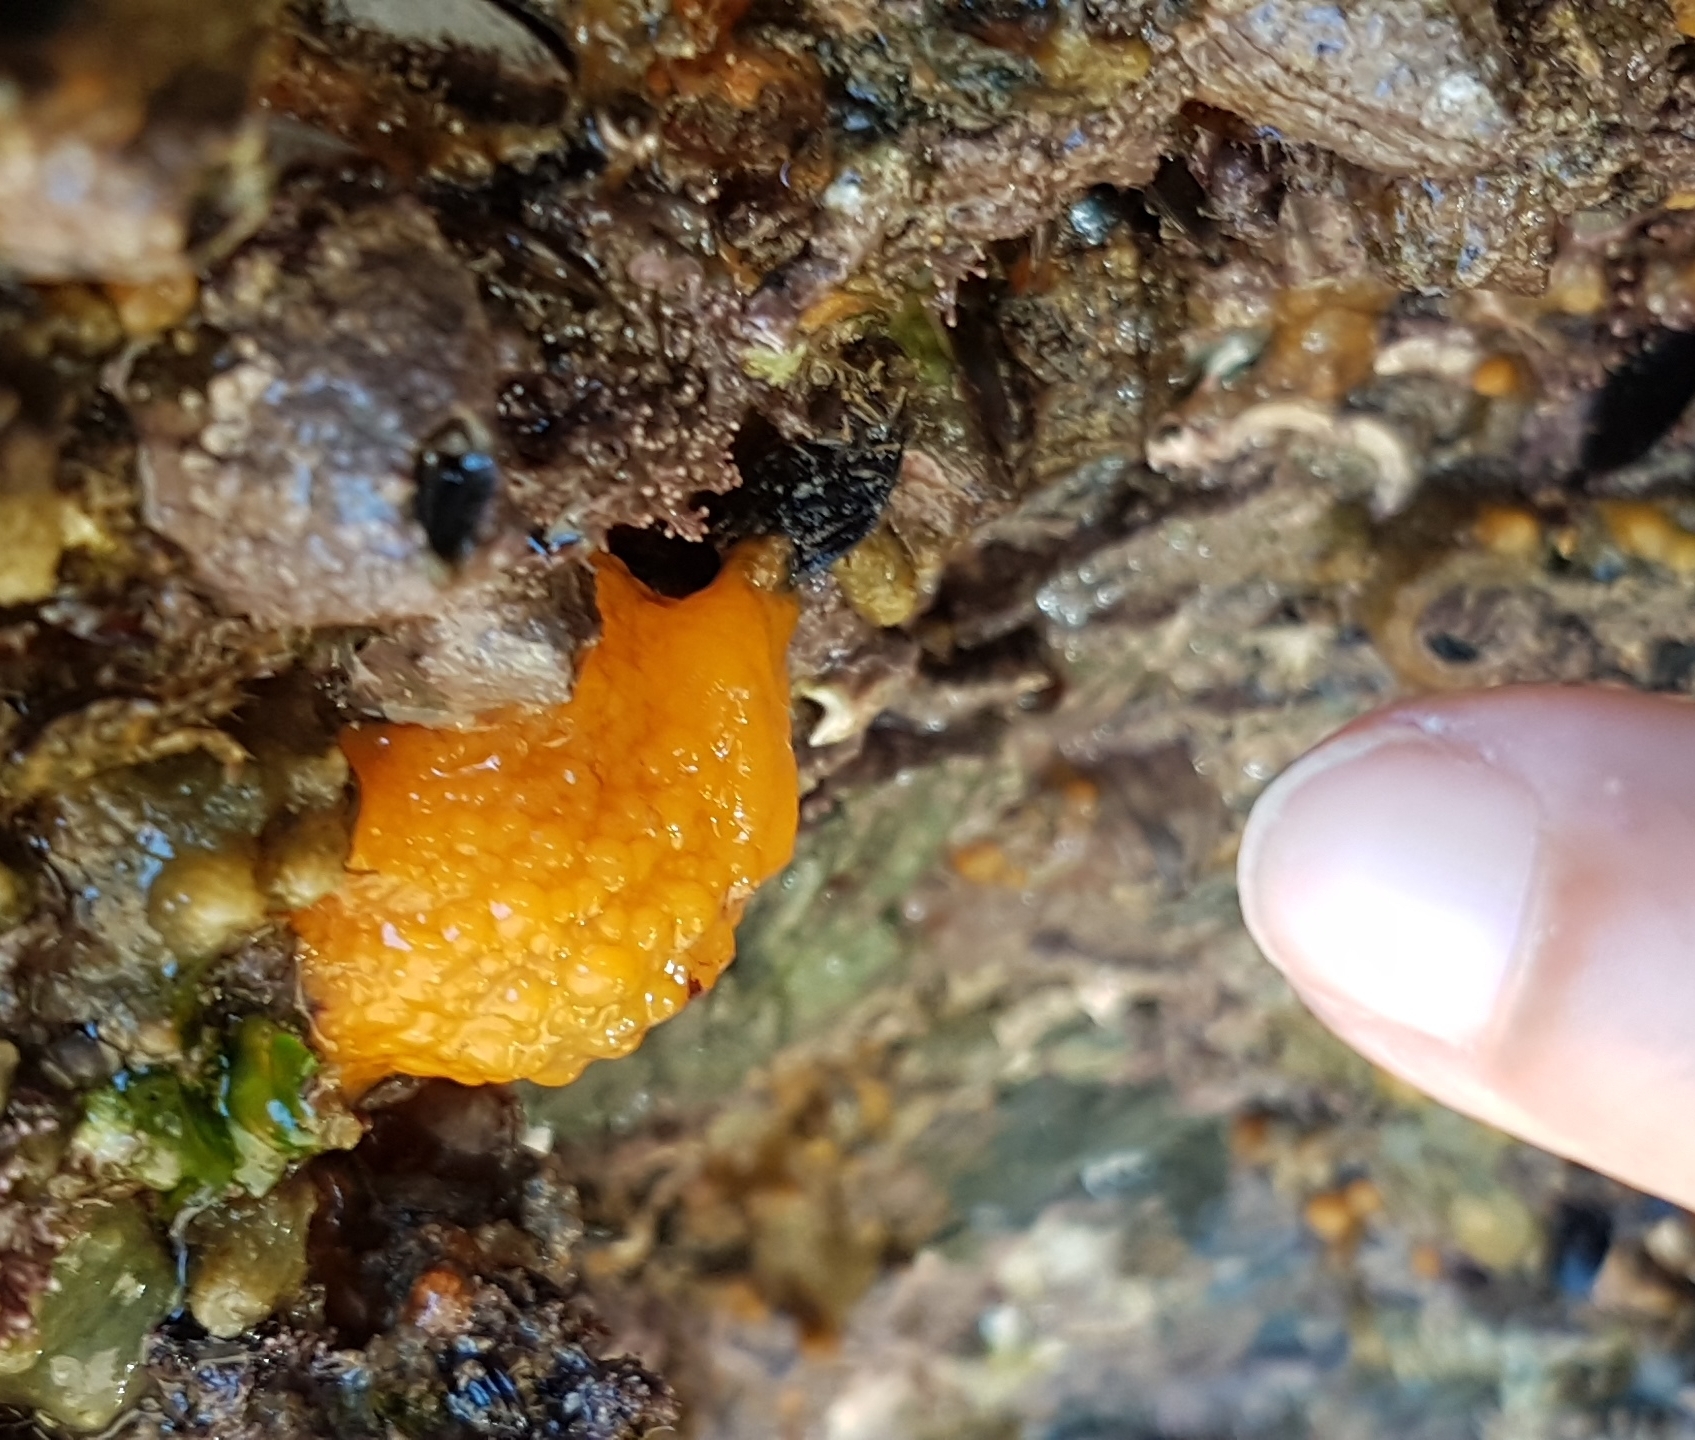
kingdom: Animalia
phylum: Mollusca
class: Gastropoda
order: Nudibranchia
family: Dorididae
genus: Doris
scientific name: Doris verrucosa
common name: Sponge seaslug
